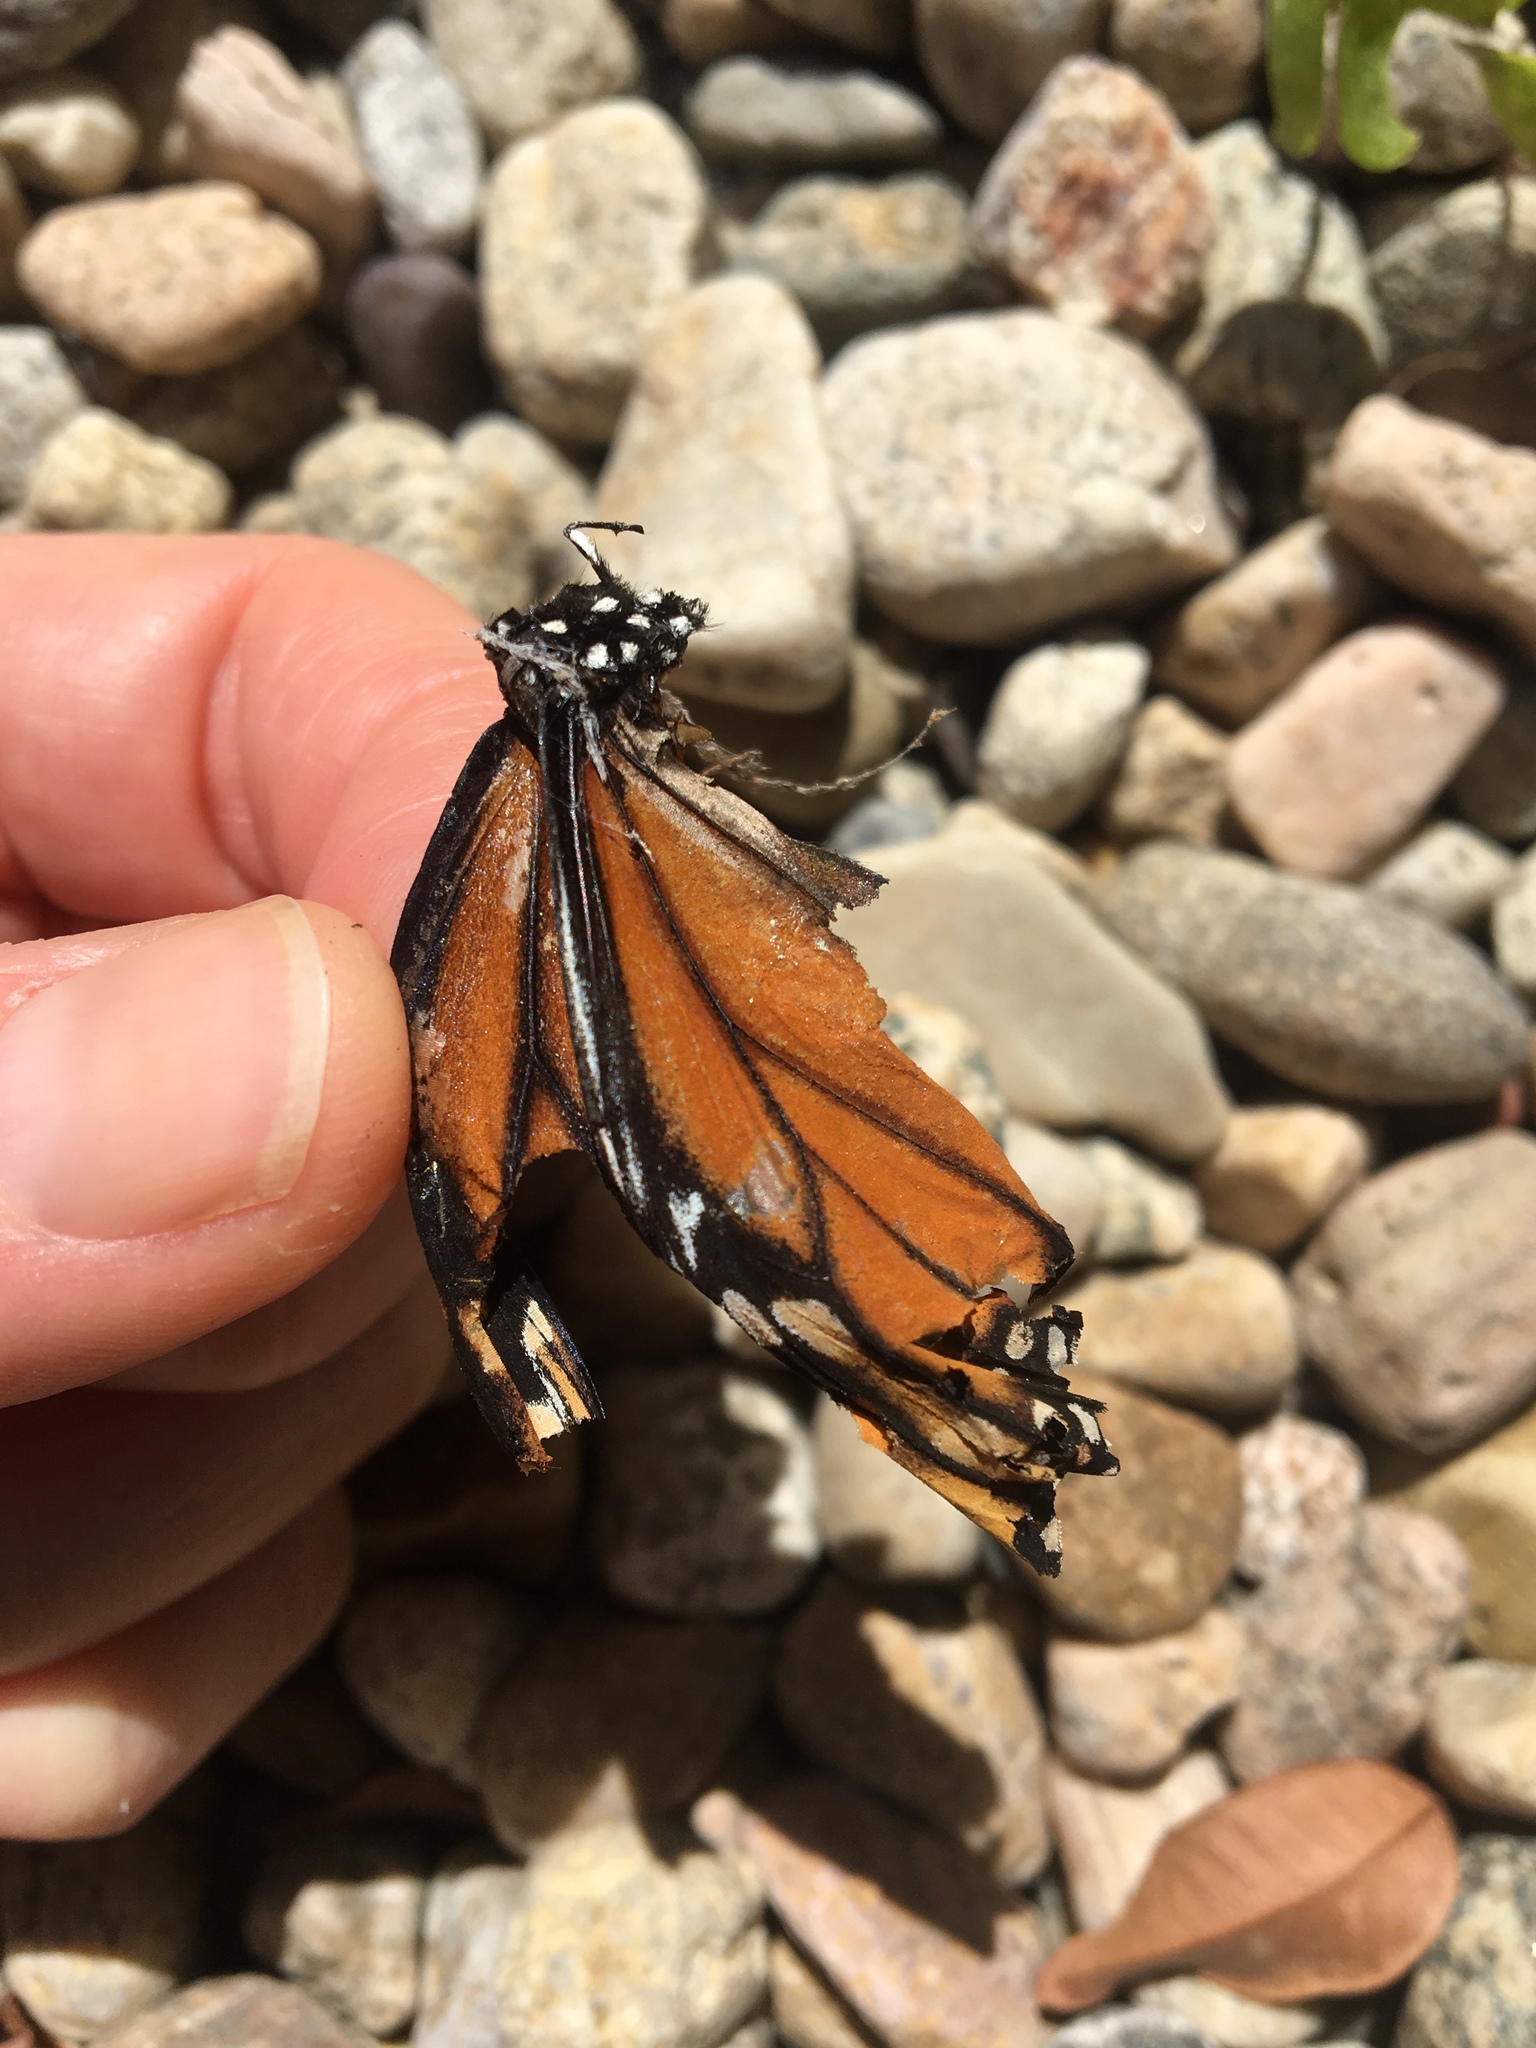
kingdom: Animalia
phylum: Arthropoda
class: Insecta
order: Lepidoptera
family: Nymphalidae
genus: Danaus
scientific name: Danaus plexippus
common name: Monarch
